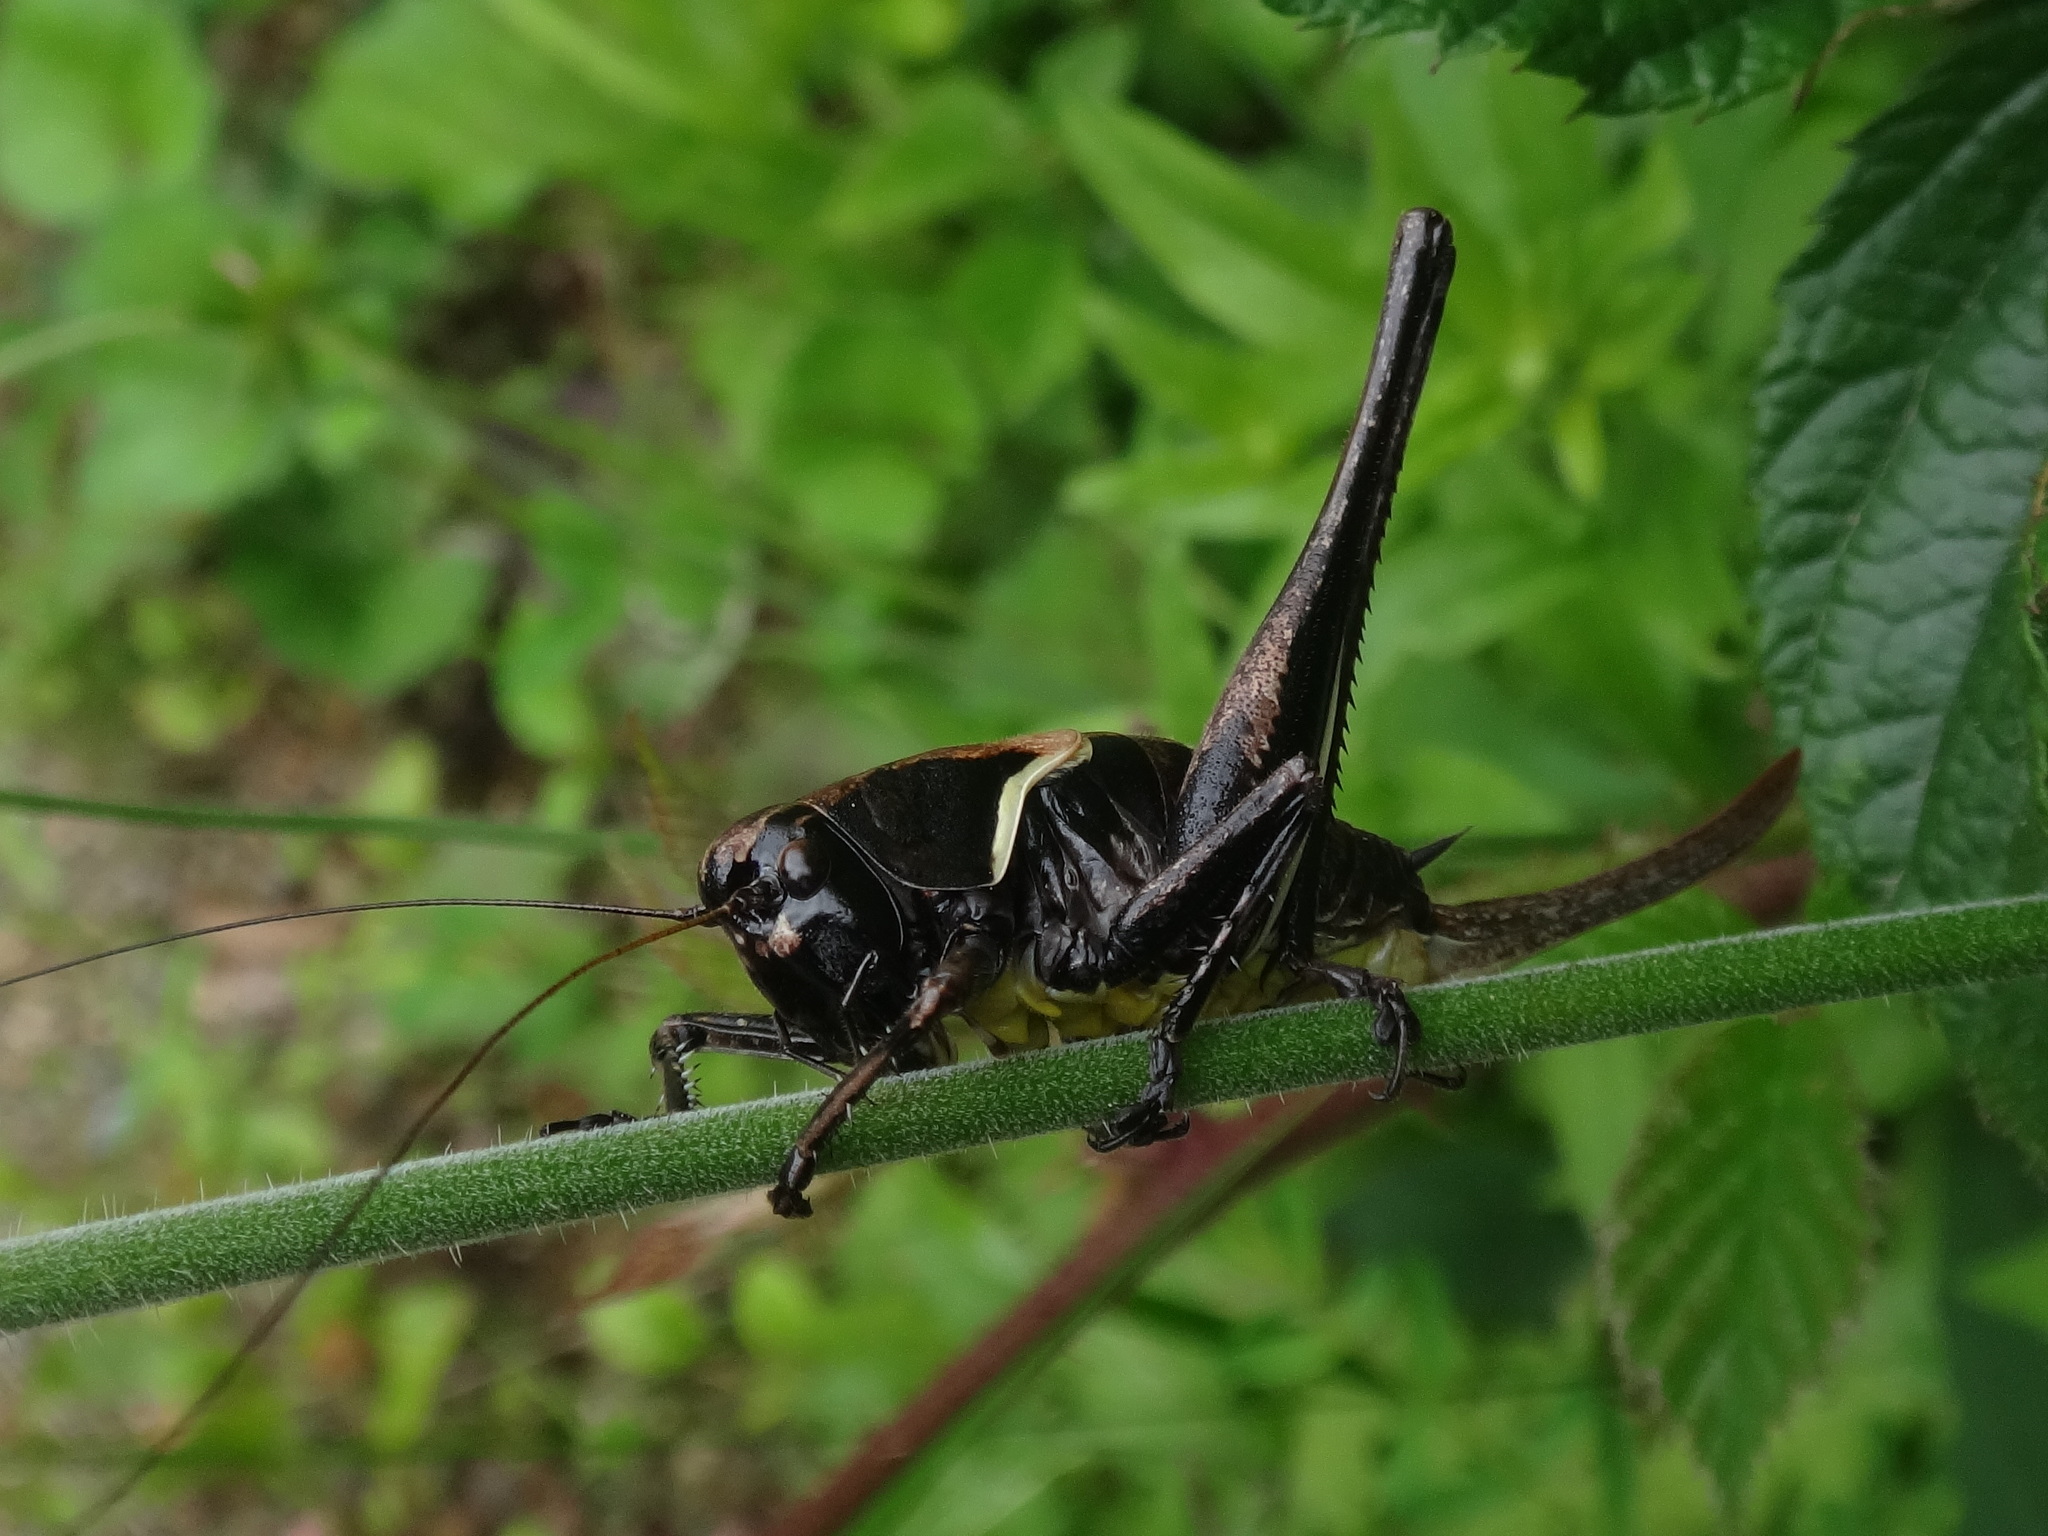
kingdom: Animalia
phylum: Arthropoda
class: Insecta
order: Orthoptera
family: Tettigoniidae
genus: Pholidoptera
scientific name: Pholidoptera aptera
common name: Alpine dark bush-cricket
